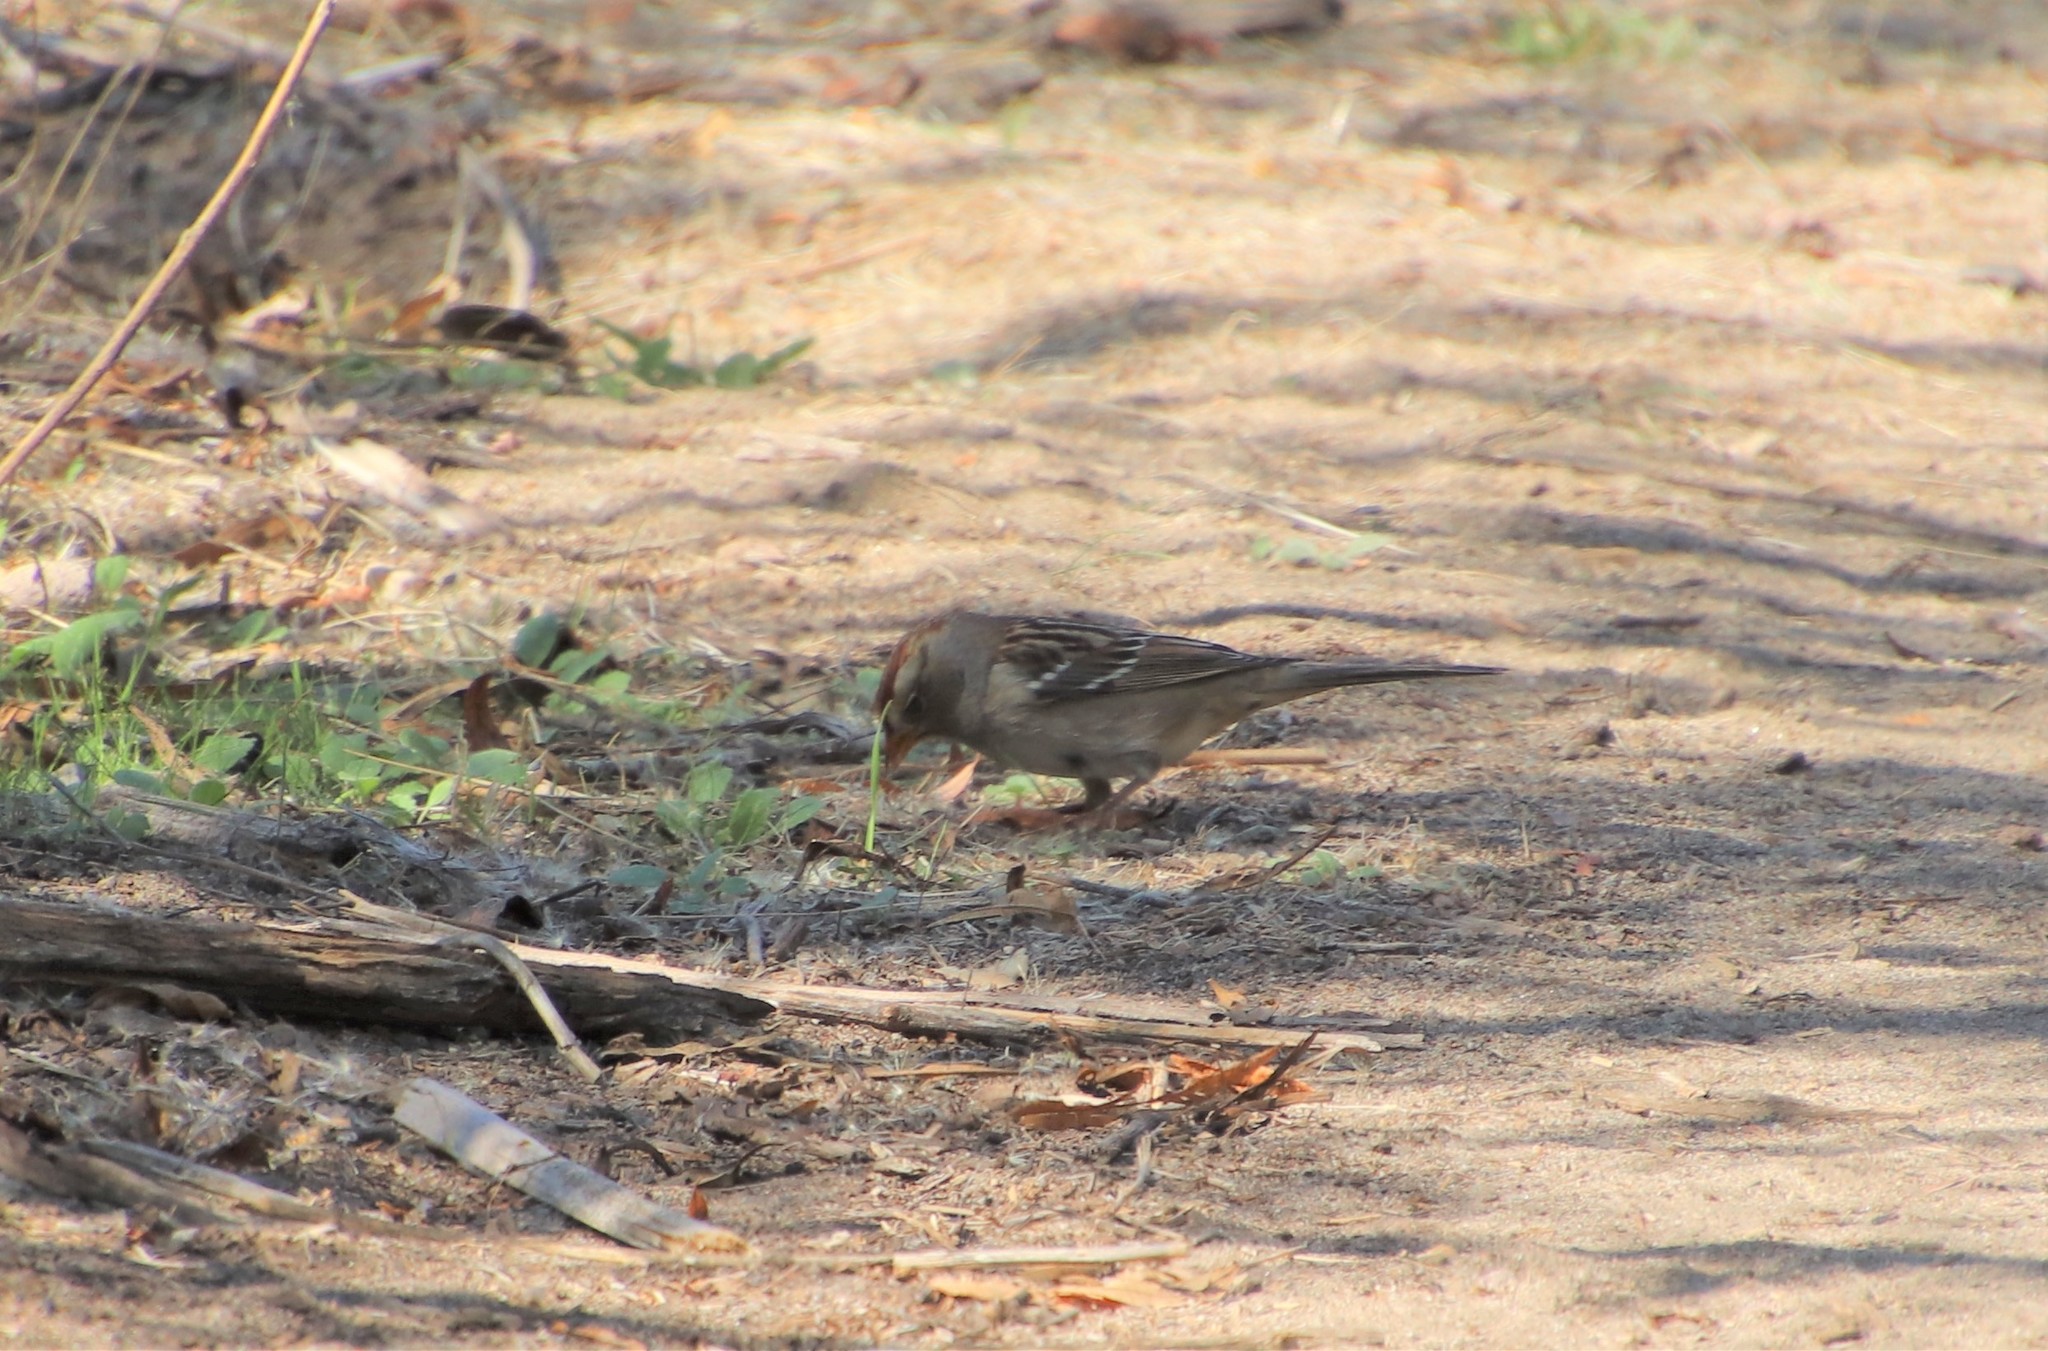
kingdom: Animalia
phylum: Chordata
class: Aves
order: Passeriformes
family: Passerellidae
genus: Zonotrichia
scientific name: Zonotrichia leucophrys
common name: White-crowned sparrow
